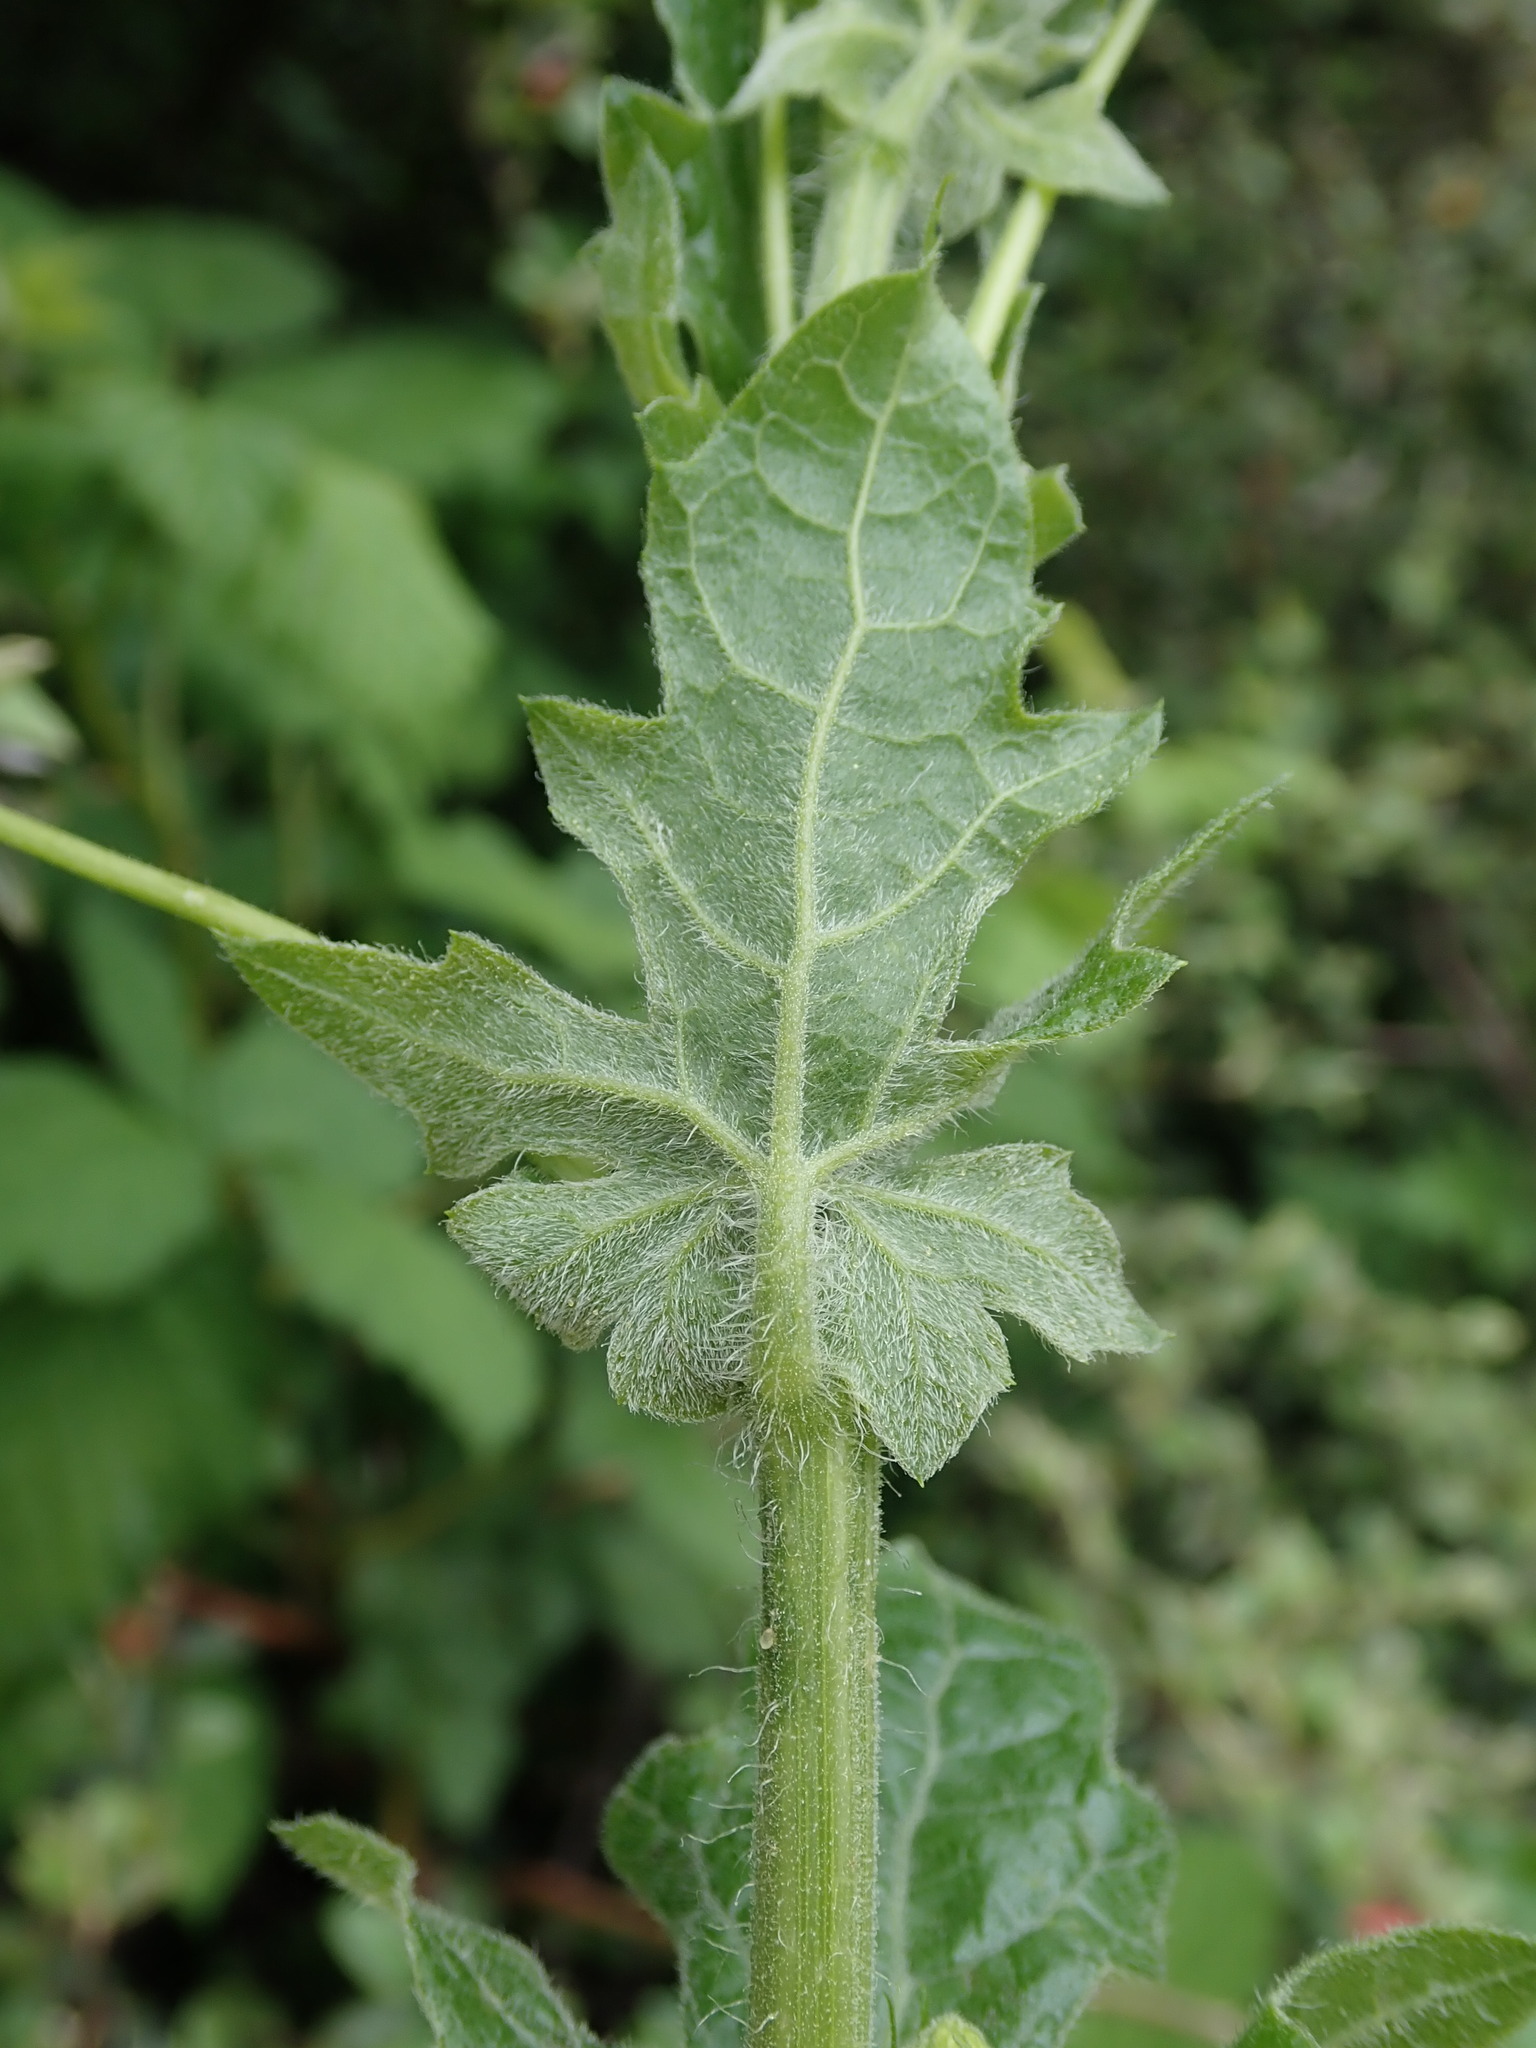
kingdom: Plantae
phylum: Tracheophyta
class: Magnoliopsida
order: Cucurbitales
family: Cucurbitaceae
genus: Bryonia
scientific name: Bryonia cretica
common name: Cretan bryony
